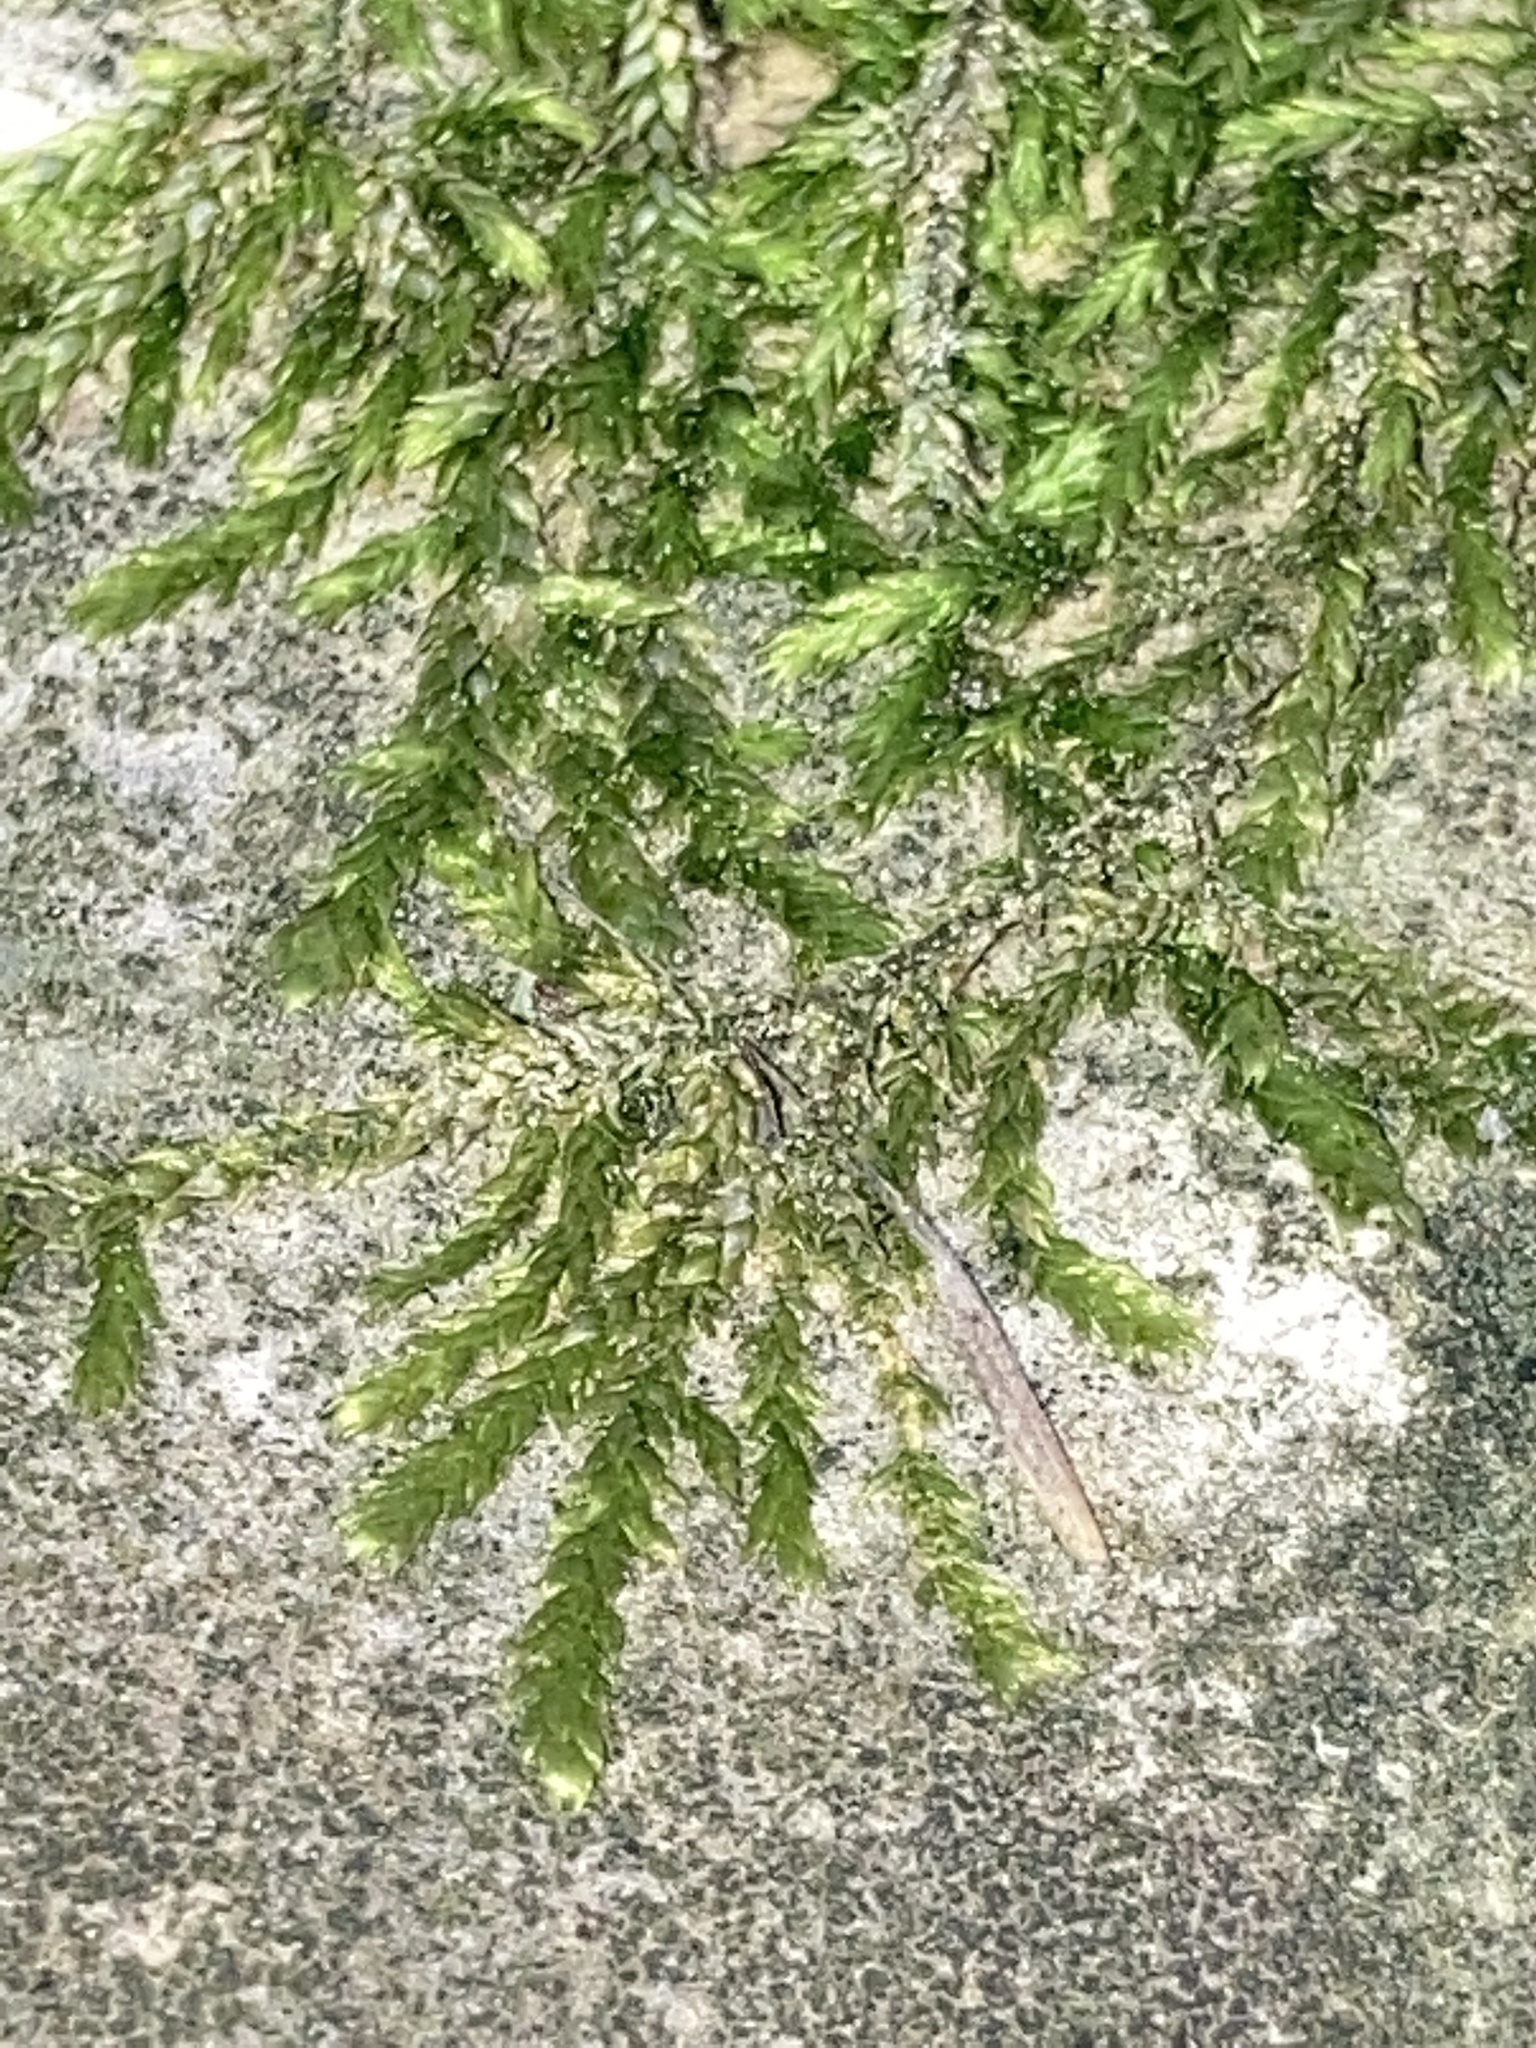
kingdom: Plantae
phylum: Bryophyta
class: Bryopsida
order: Hypnales
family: Plagiotheciaceae
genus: Plagiothecium
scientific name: Plagiothecium cavifolium
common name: Round silk moss
